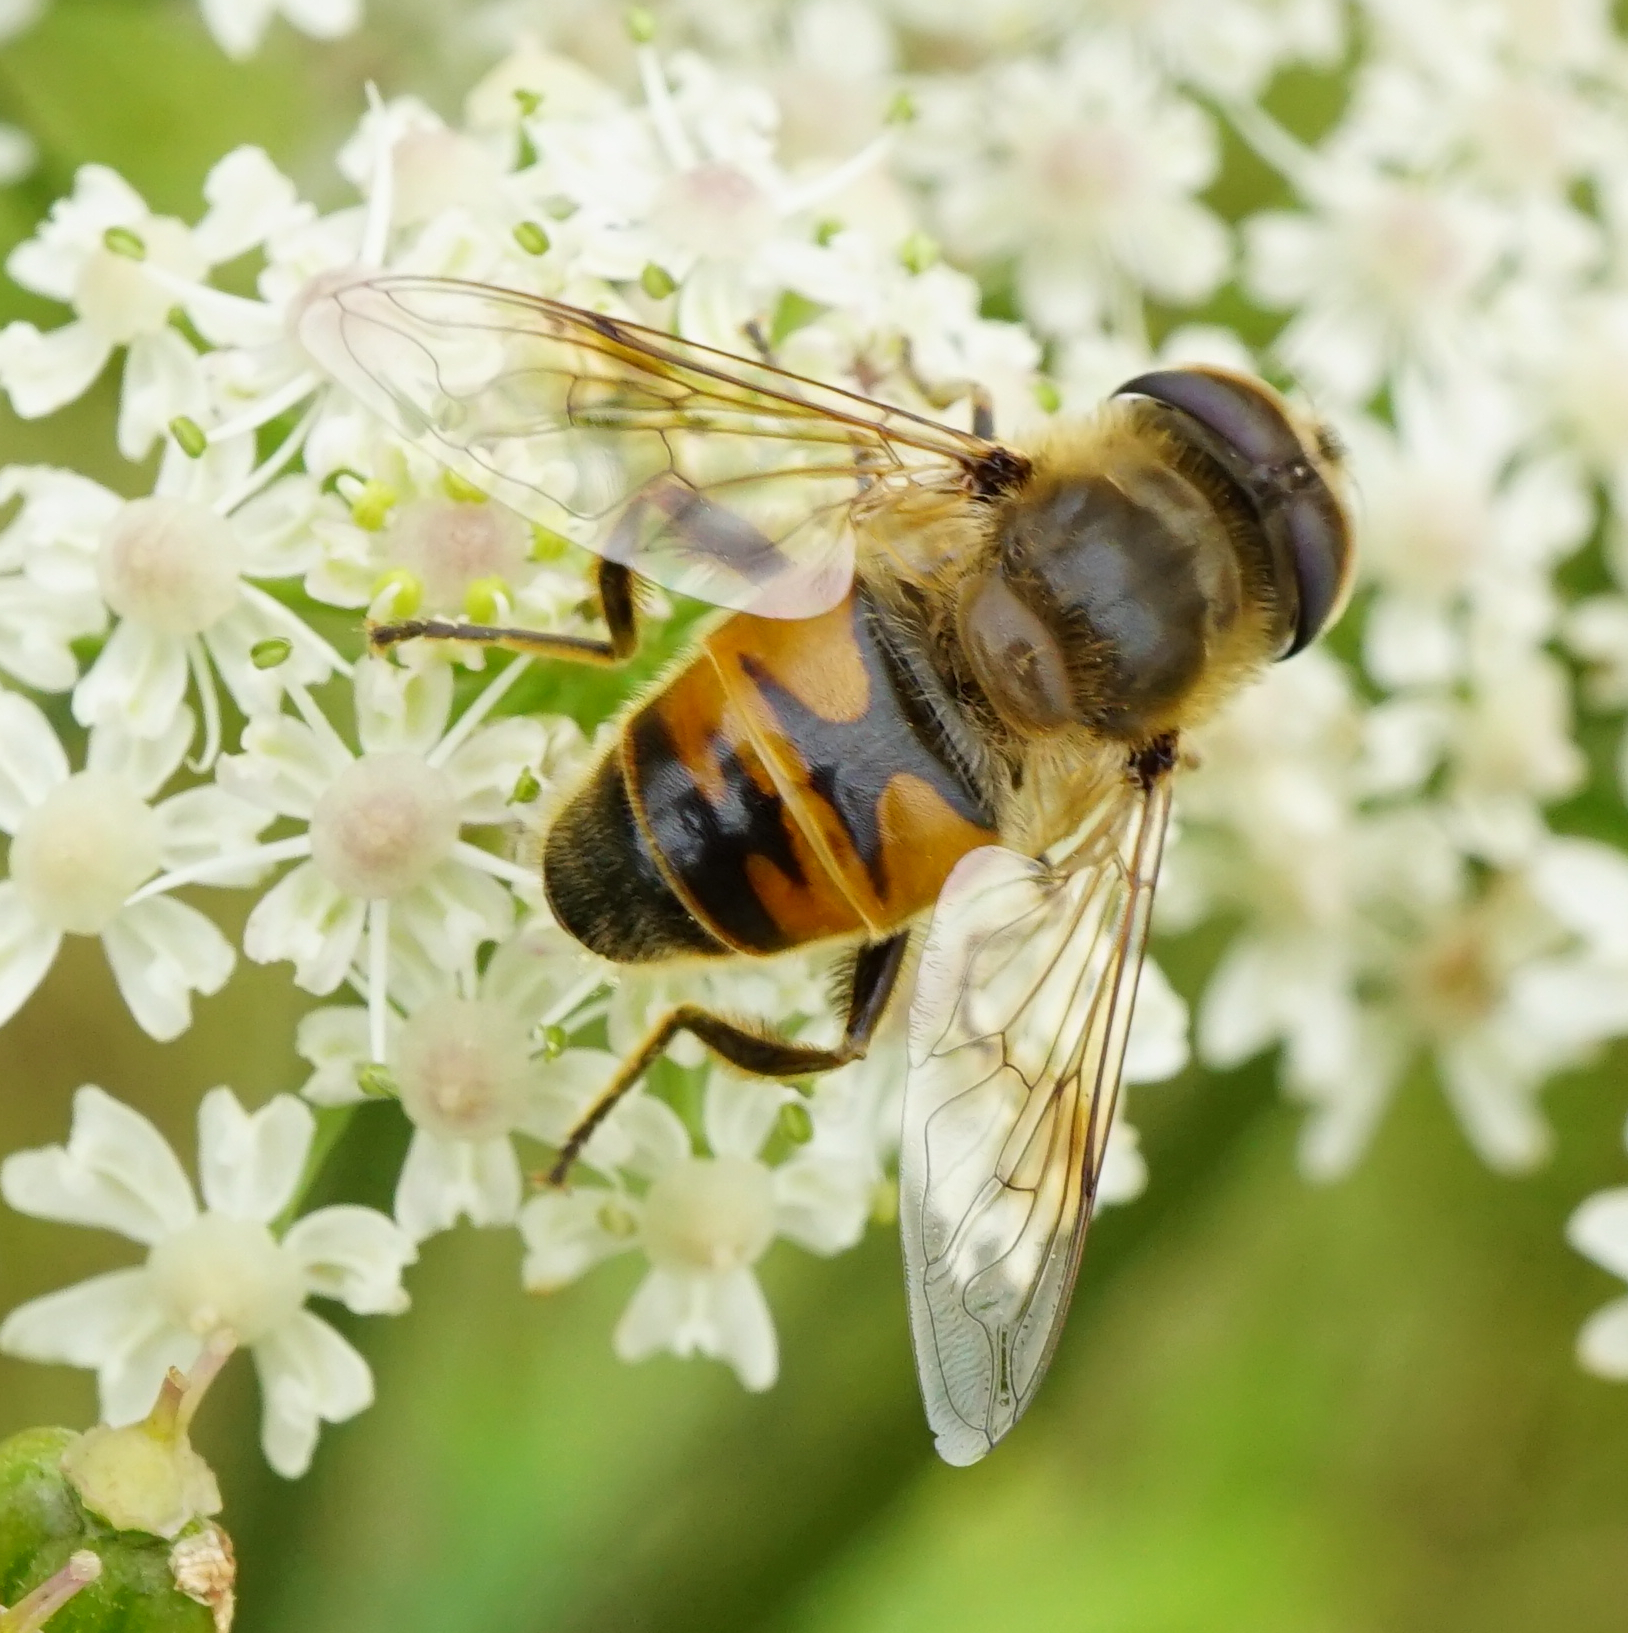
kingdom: Animalia
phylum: Arthropoda
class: Insecta
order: Diptera
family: Syrphidae
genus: Eristalis
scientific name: Eristalis tenax
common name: Drone fly
